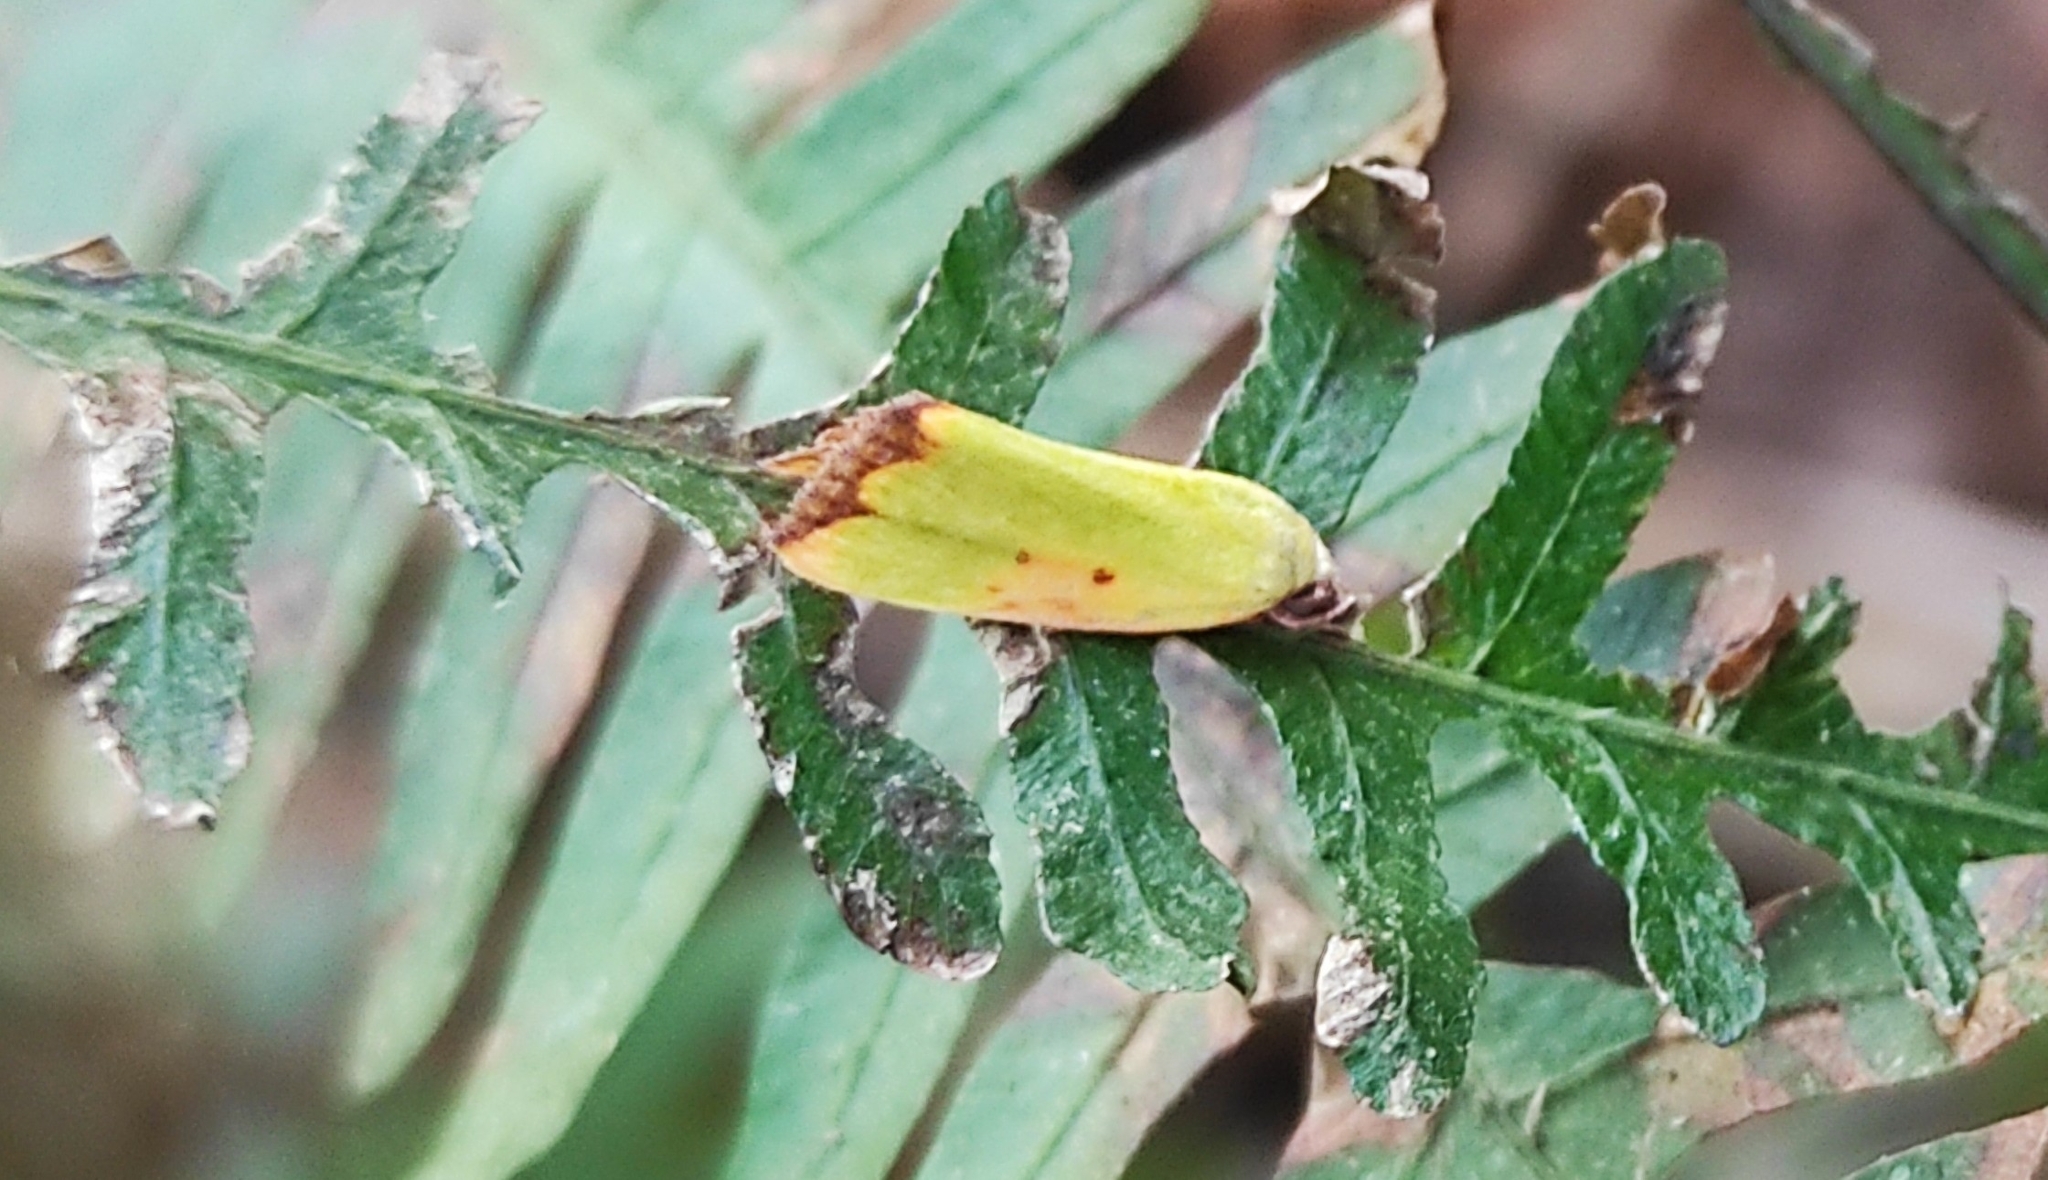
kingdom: Animalia
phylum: Arthropoda
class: Insecta
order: Lepidoptera
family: Nolidae
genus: Earias
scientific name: Earias cupreoviridis
